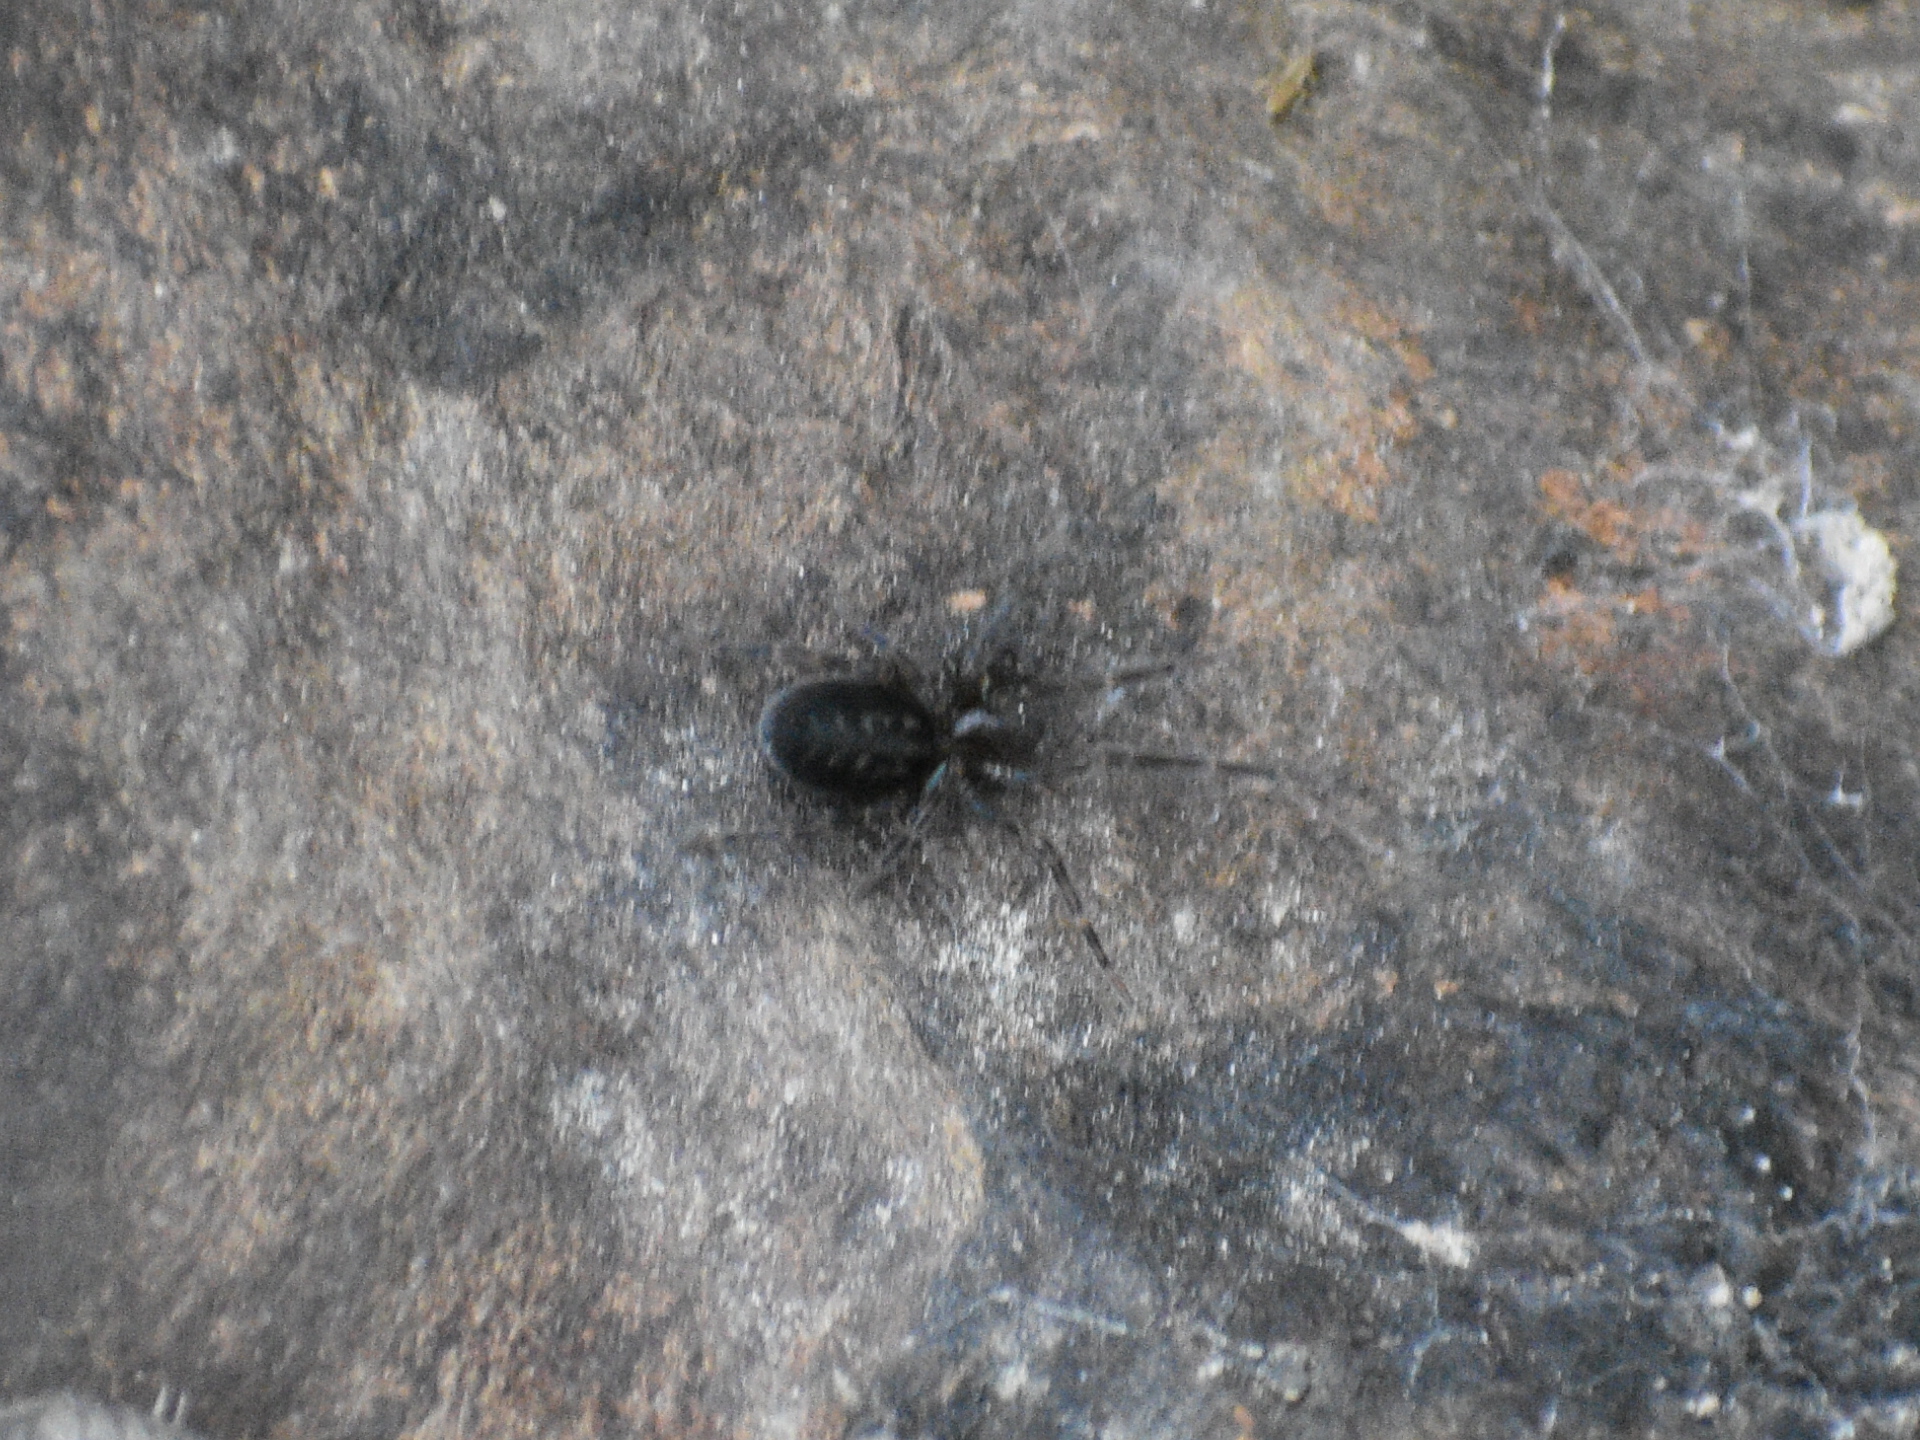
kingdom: Animalia
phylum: Arthropoda
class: Arachnida
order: Araneae
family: Amaurobiidae
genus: Amaurobius
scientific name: Amaurobius ferox
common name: Black laceweaver
